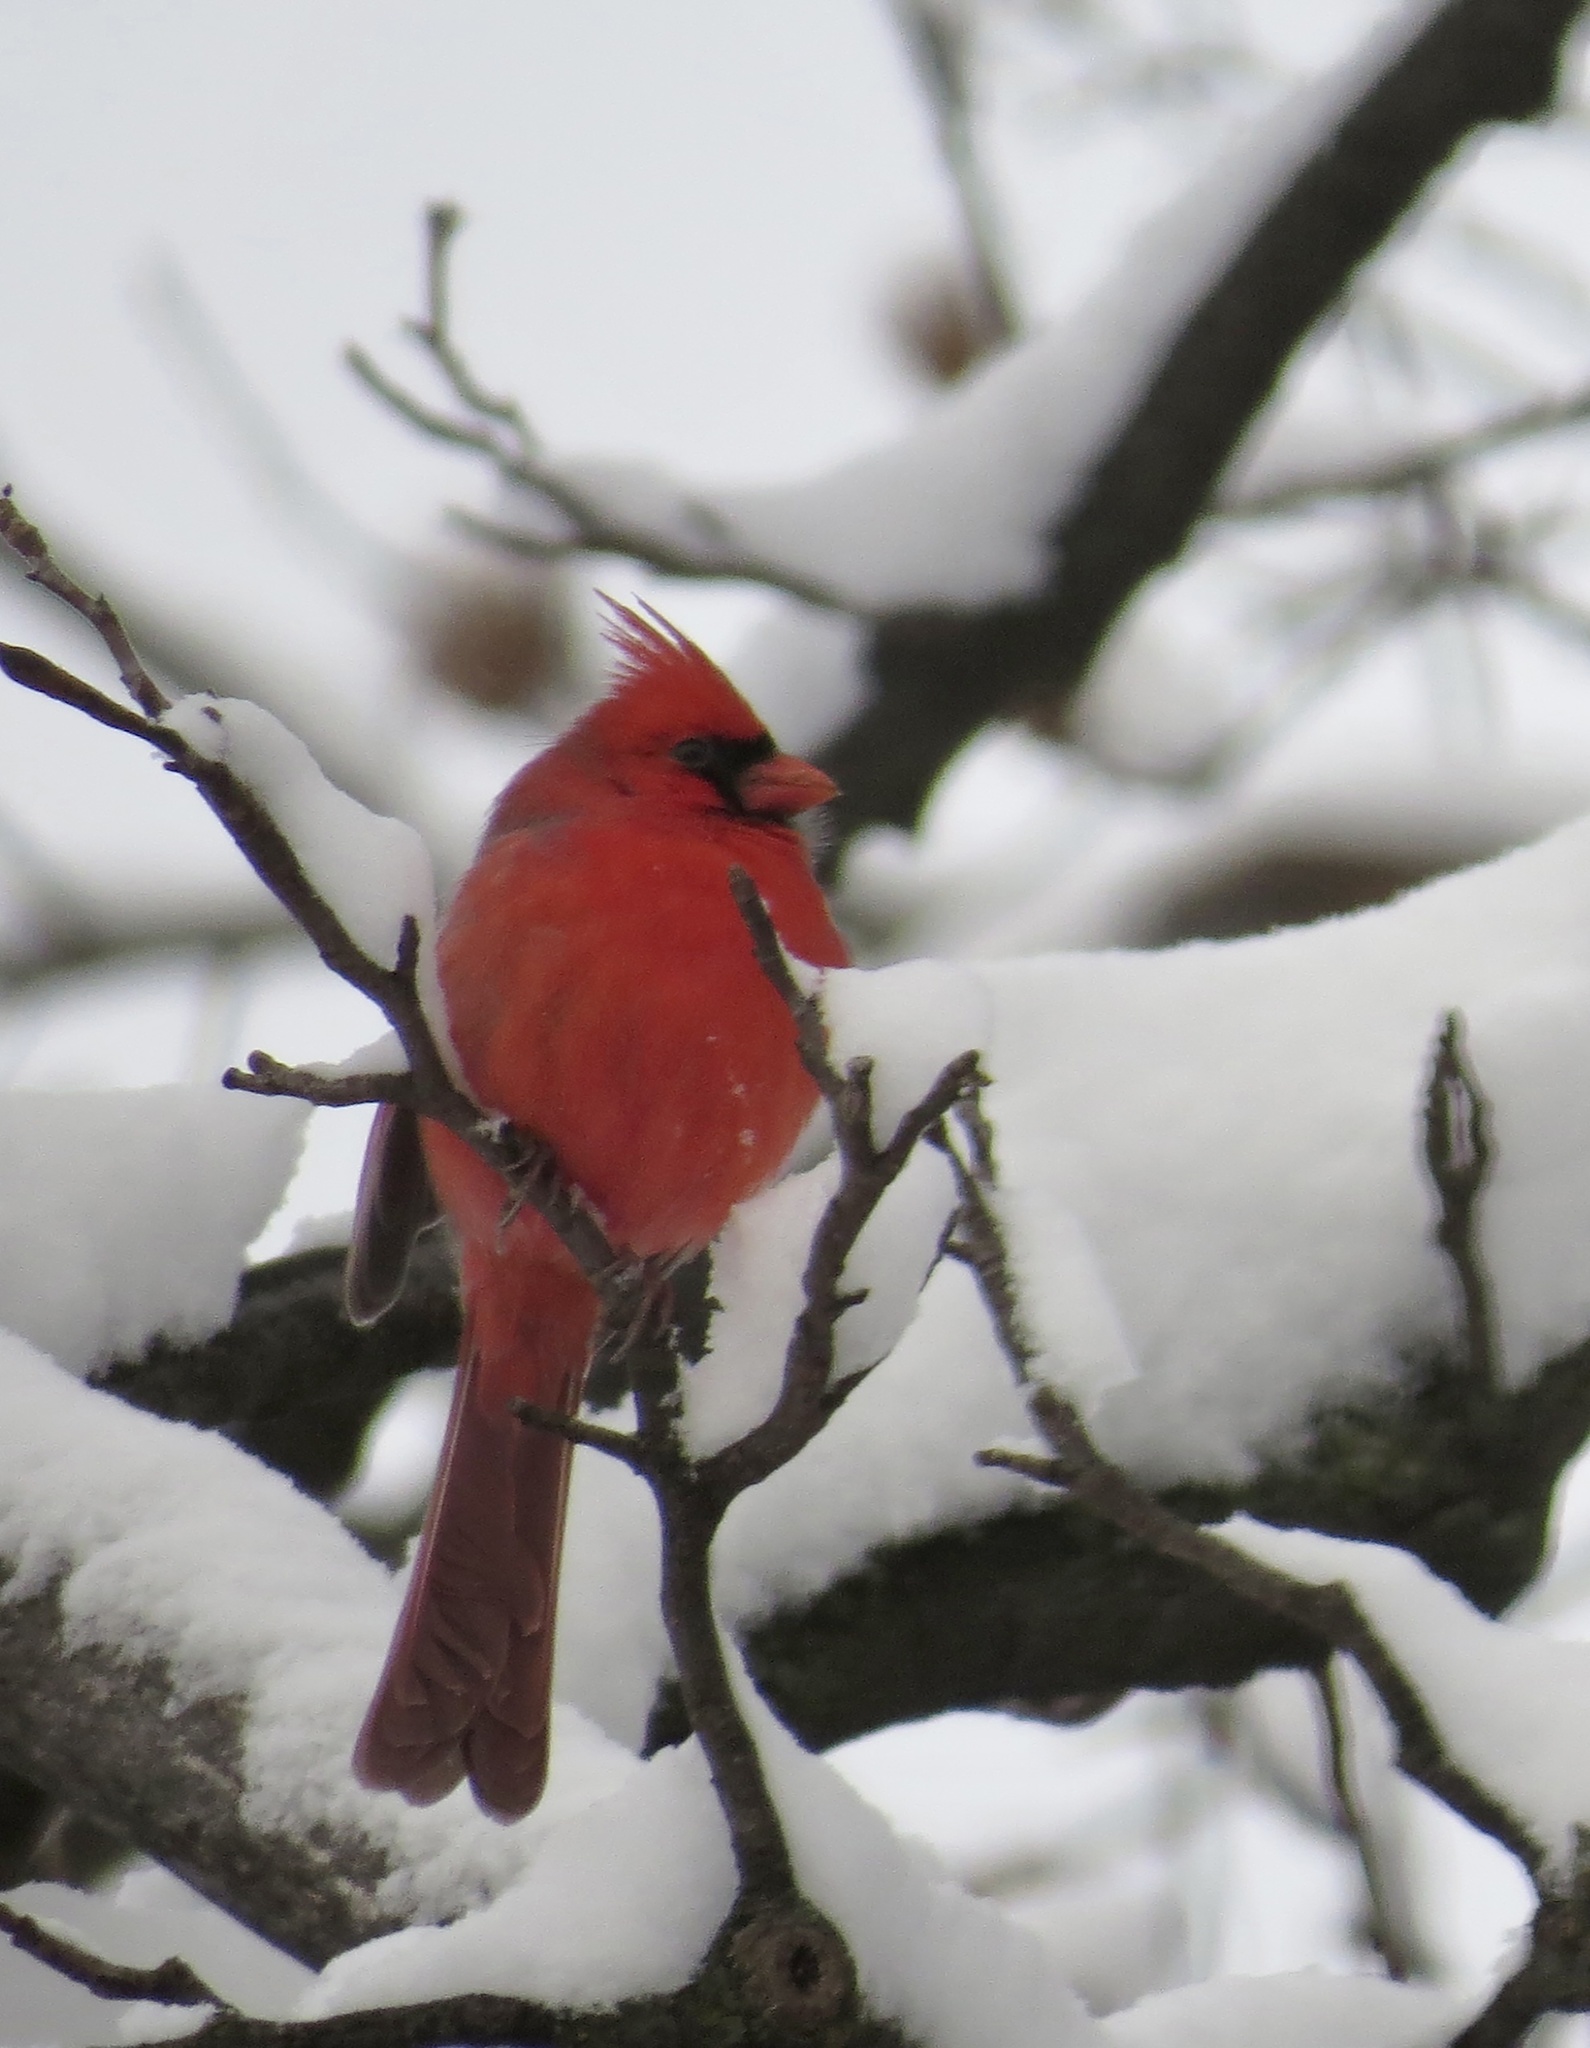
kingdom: Animalia
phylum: Chordata
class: Aves
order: Passeriformes
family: Cardinalidae
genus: Cardinalis
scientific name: Cardinalis cardinalis
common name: Northern cardinal
